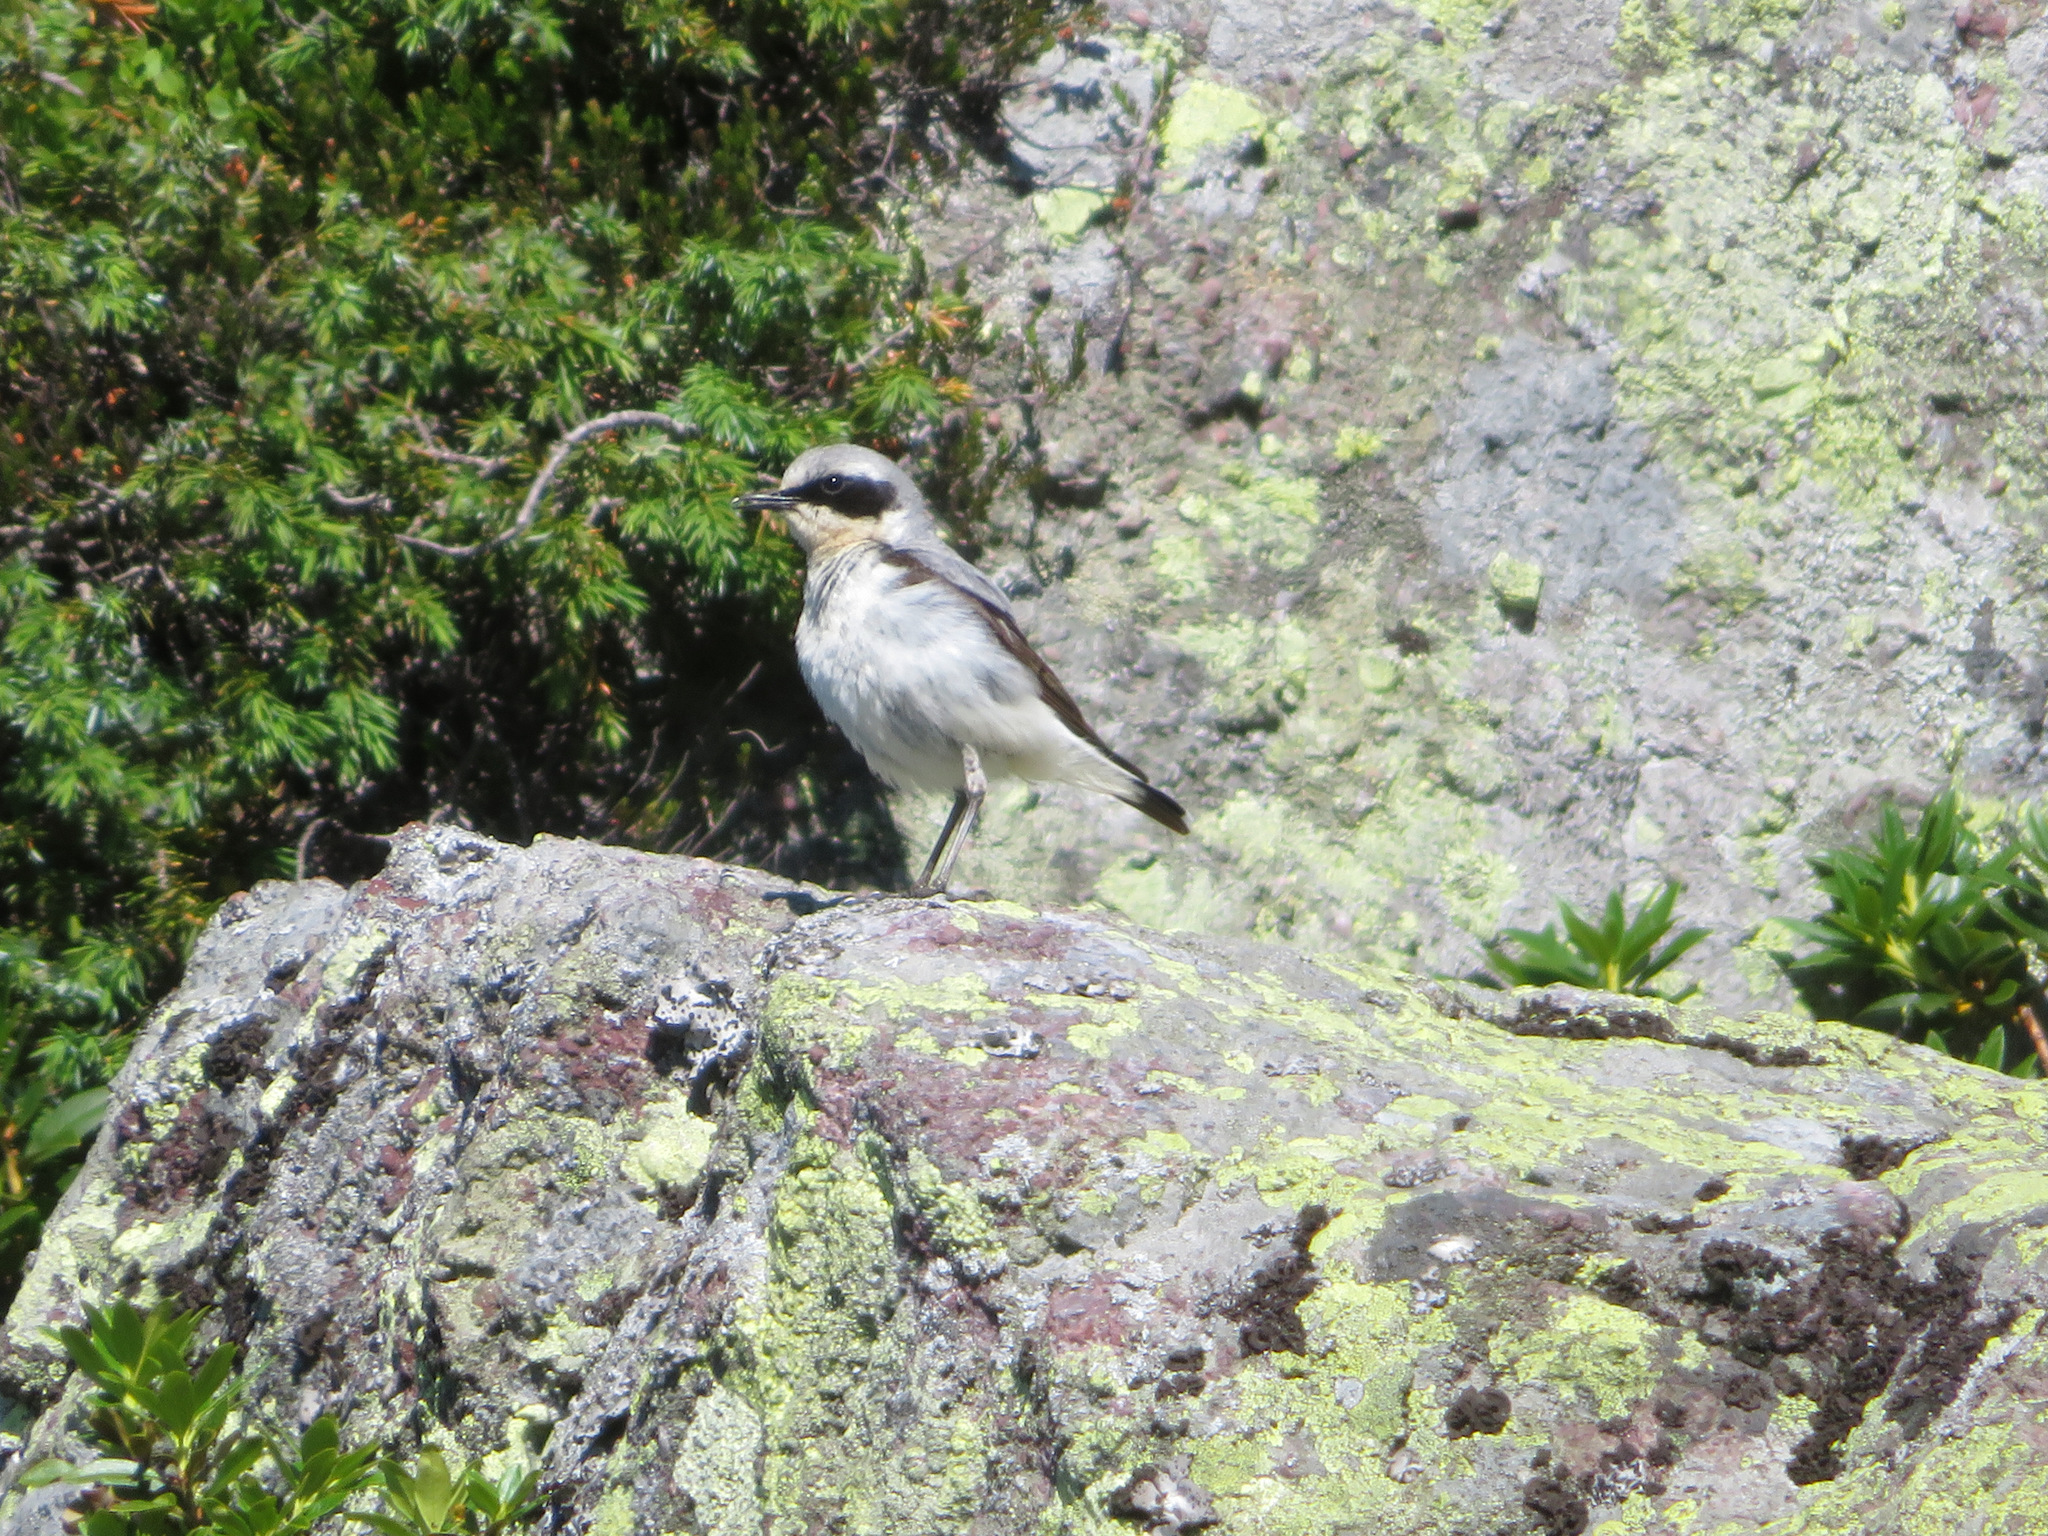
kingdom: Animalia
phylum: Chordata
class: Aves
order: Passeriformes
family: Muscicapidae
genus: Oenanthe
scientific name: Oenanthe oenanthe
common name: Northern wheatear
